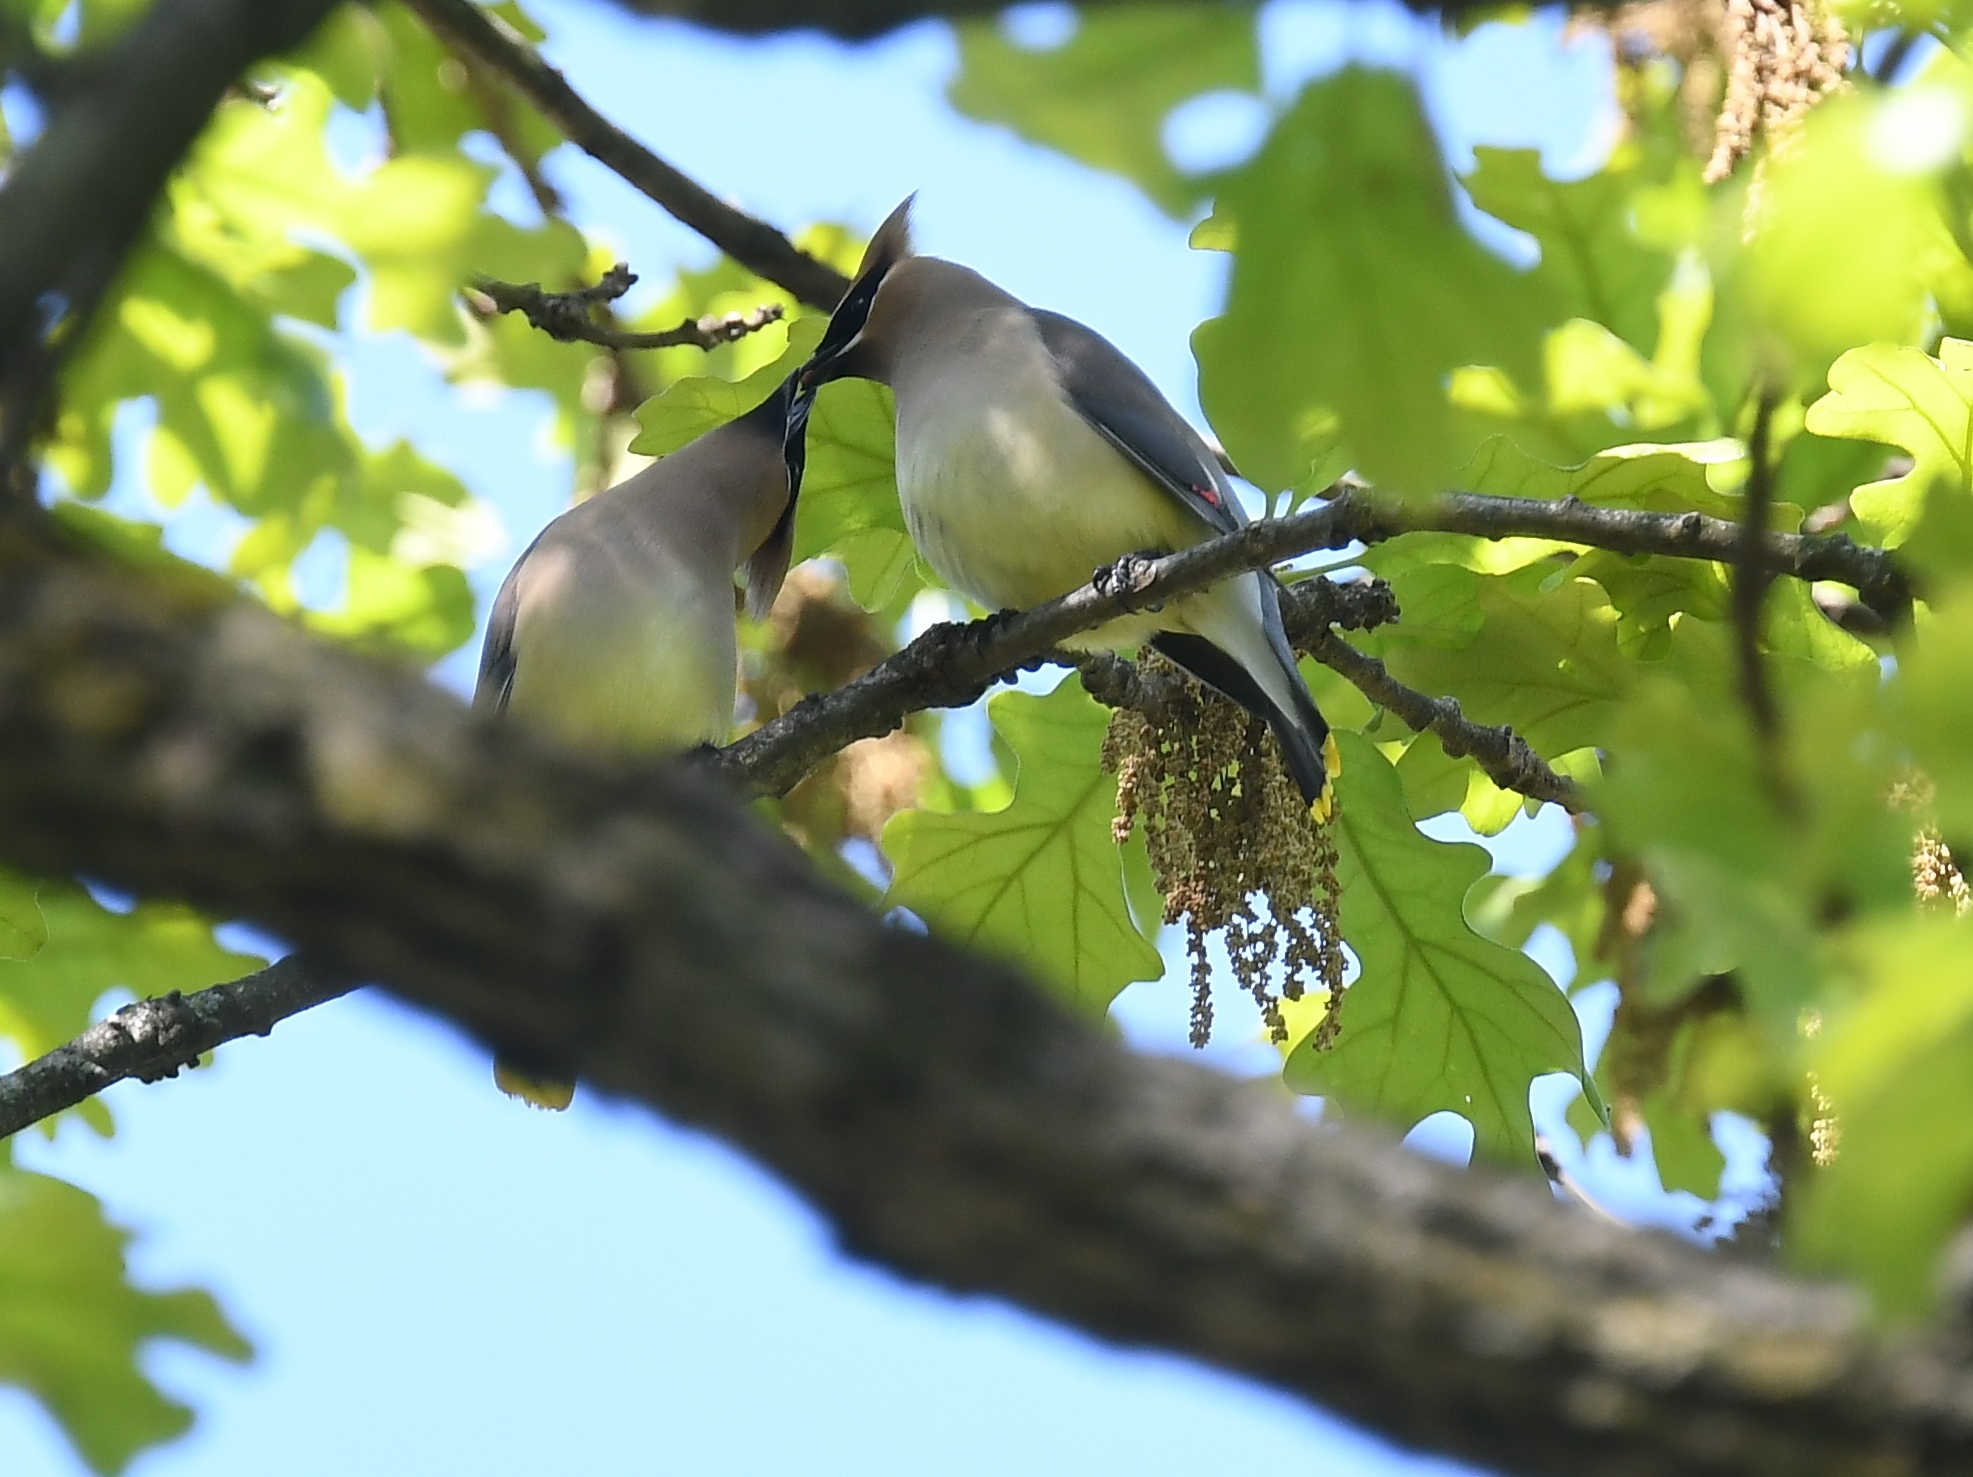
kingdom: Animalia
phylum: Chordata
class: Aves
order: Passeriformes
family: Bombycillidae
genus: Bombycilla
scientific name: Bombycilla cedrorum
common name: Cedar waxwing
